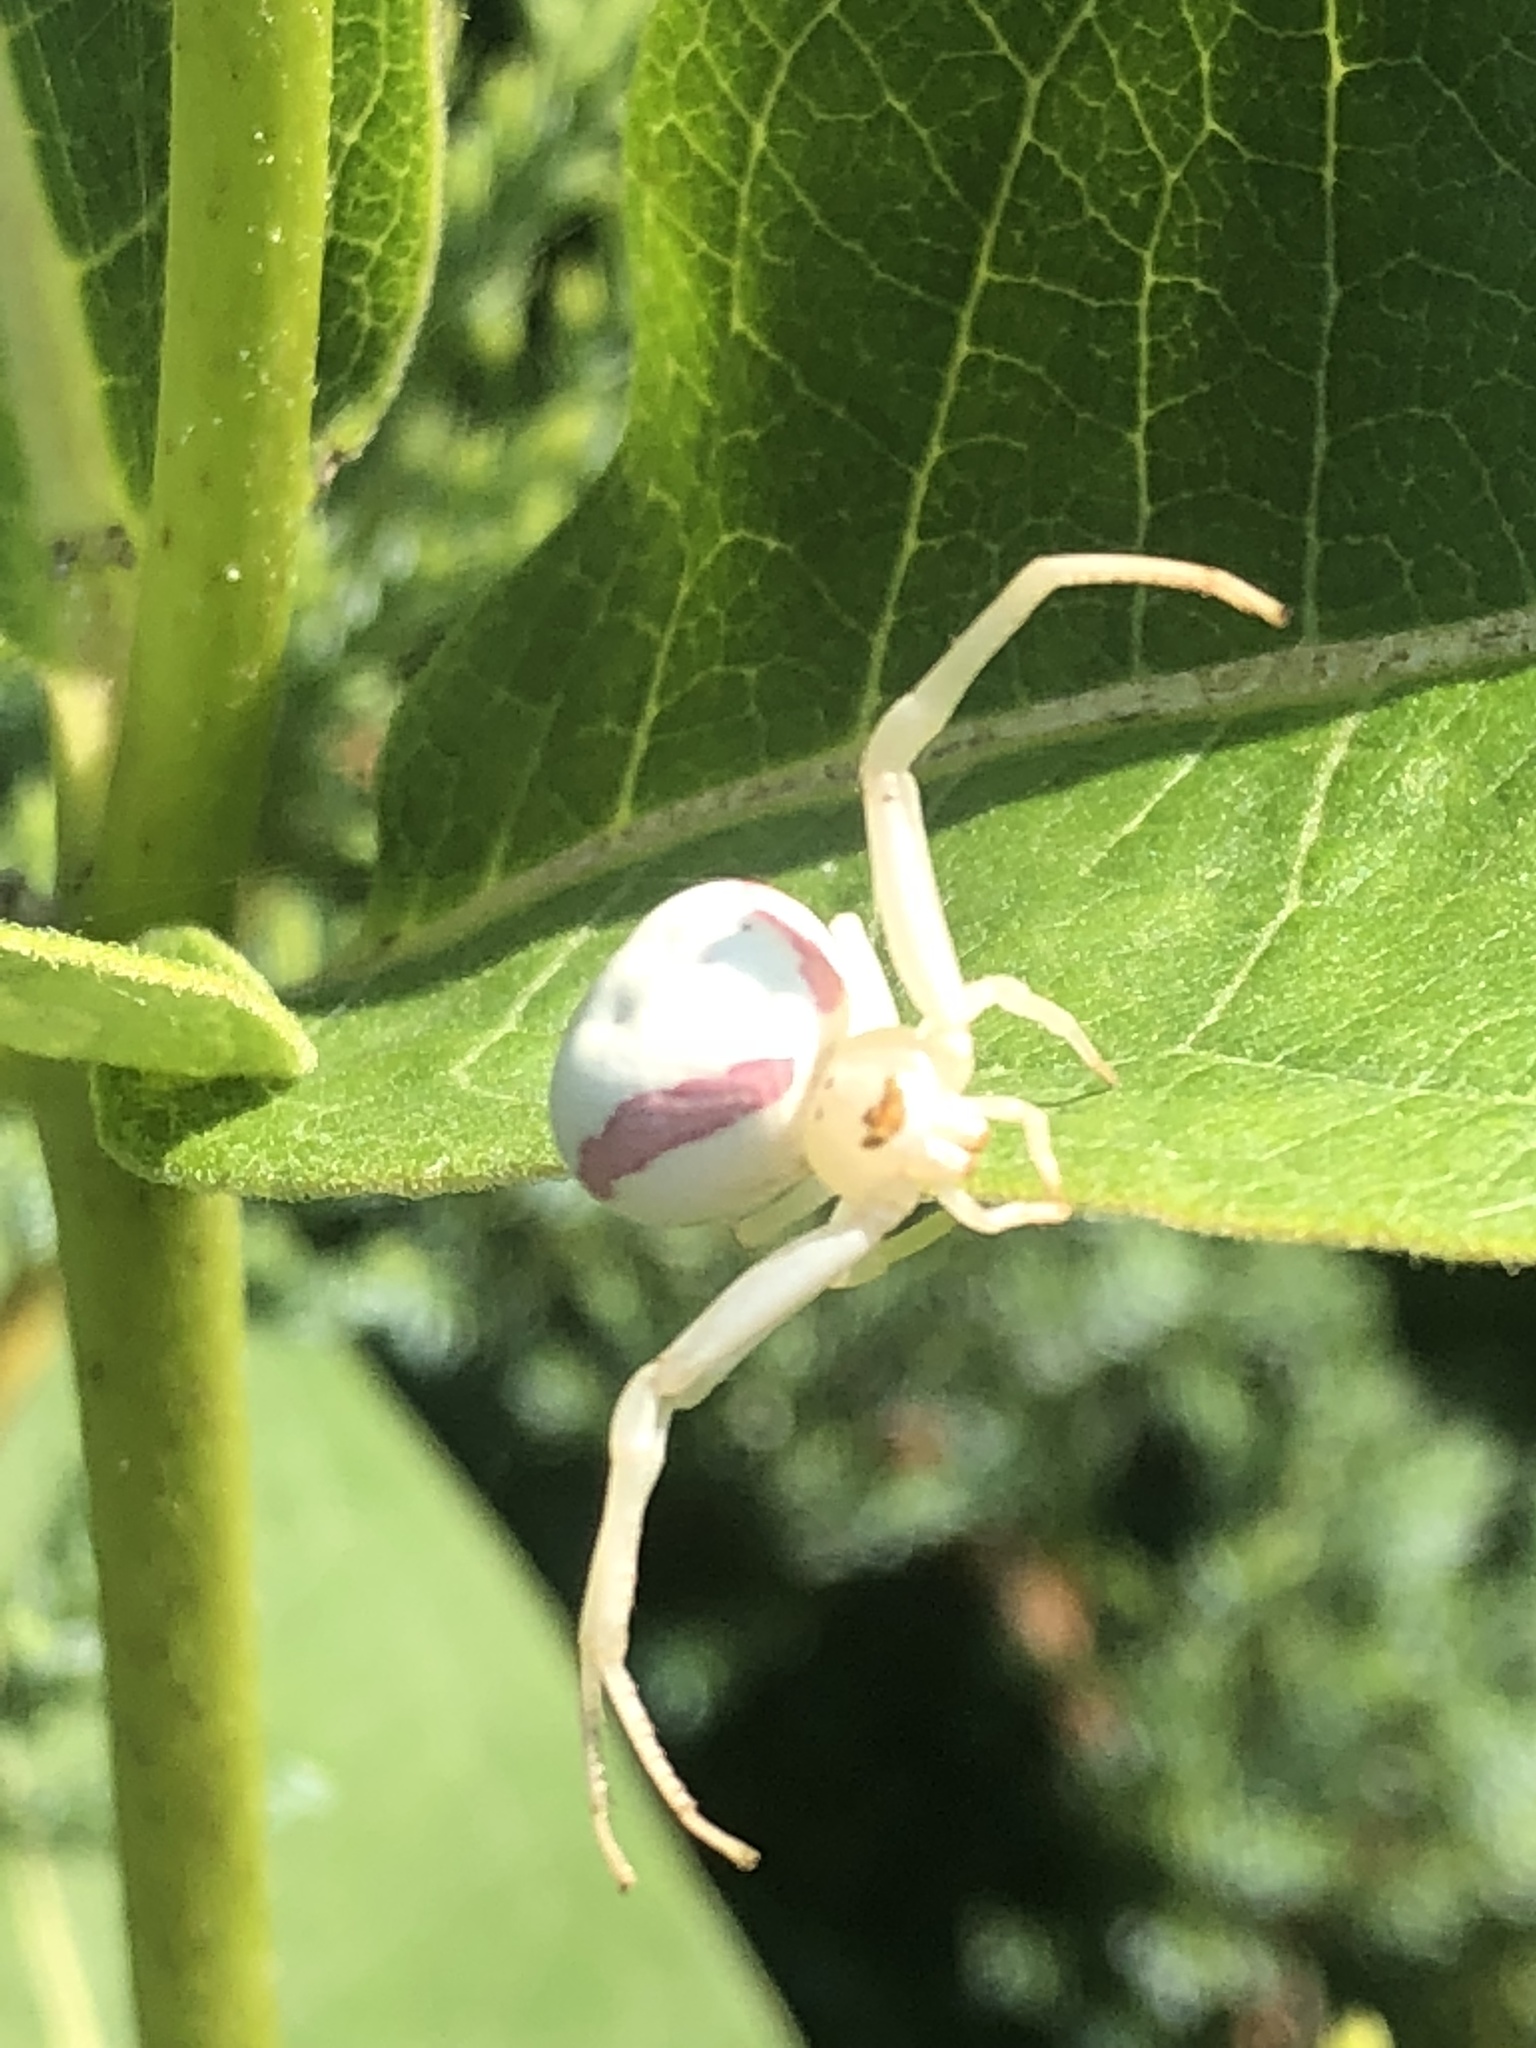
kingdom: Animalia
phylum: Arthropoda
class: Arachnida
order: Araneae
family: Thomisidae
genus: Misumena
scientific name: Misumena vatia
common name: Goldenrod crab spider
